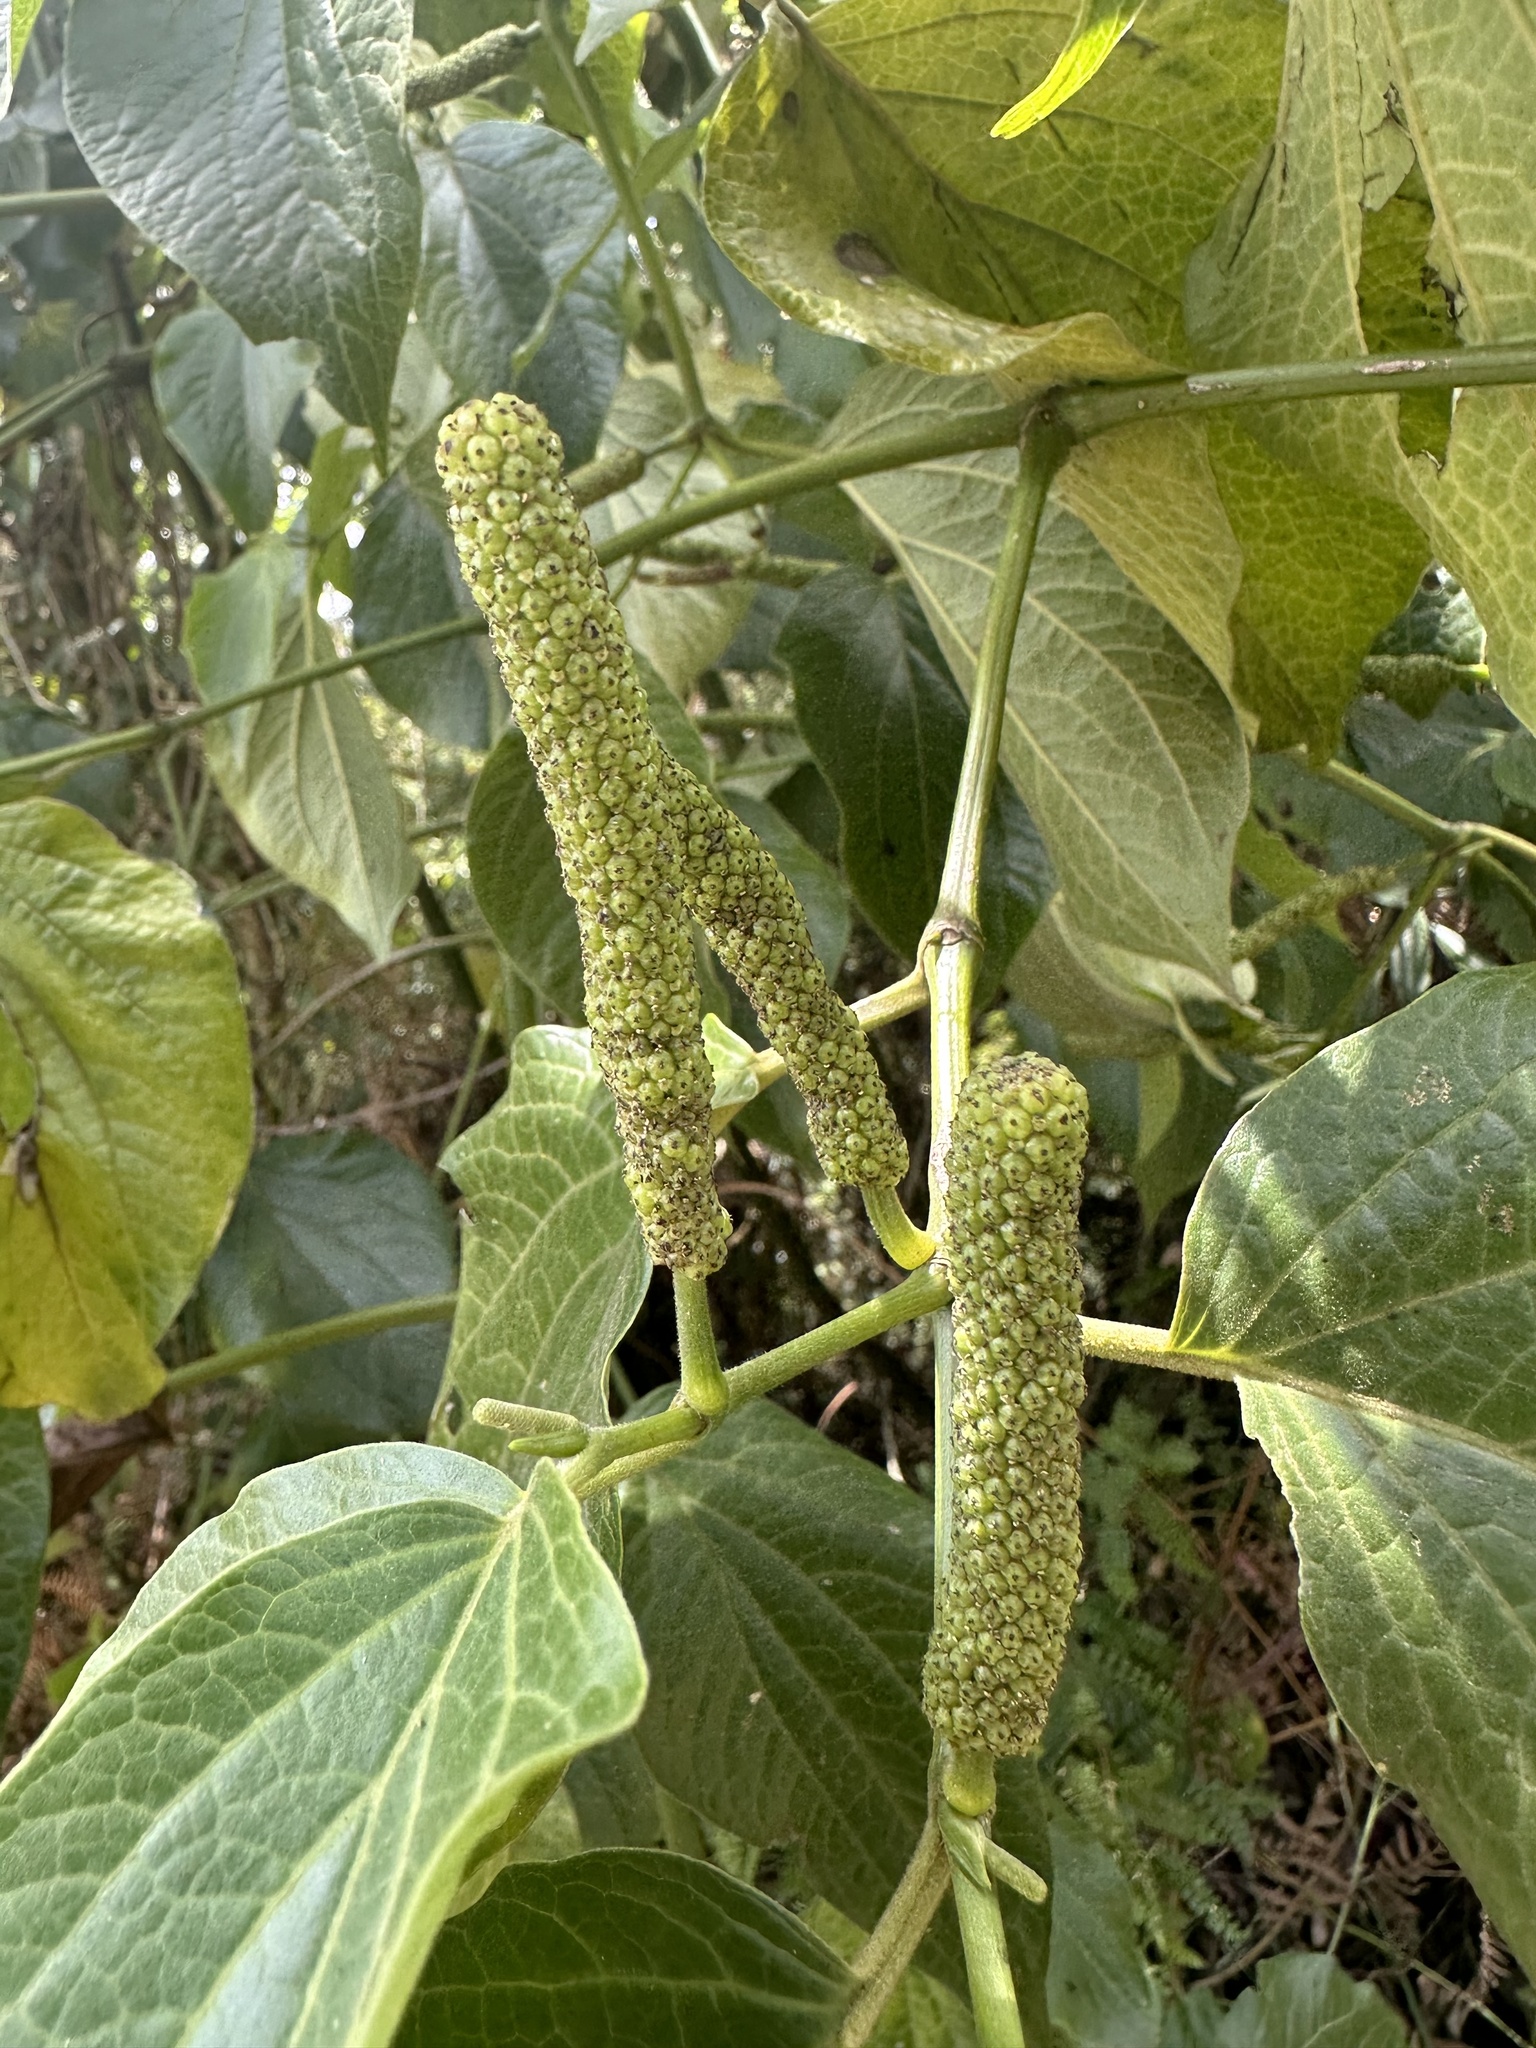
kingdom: Plantae
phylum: Tracheophyta
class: Magnoliopsida
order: Piperales
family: Piperaceae
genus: Piper
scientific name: Piper barbatum
